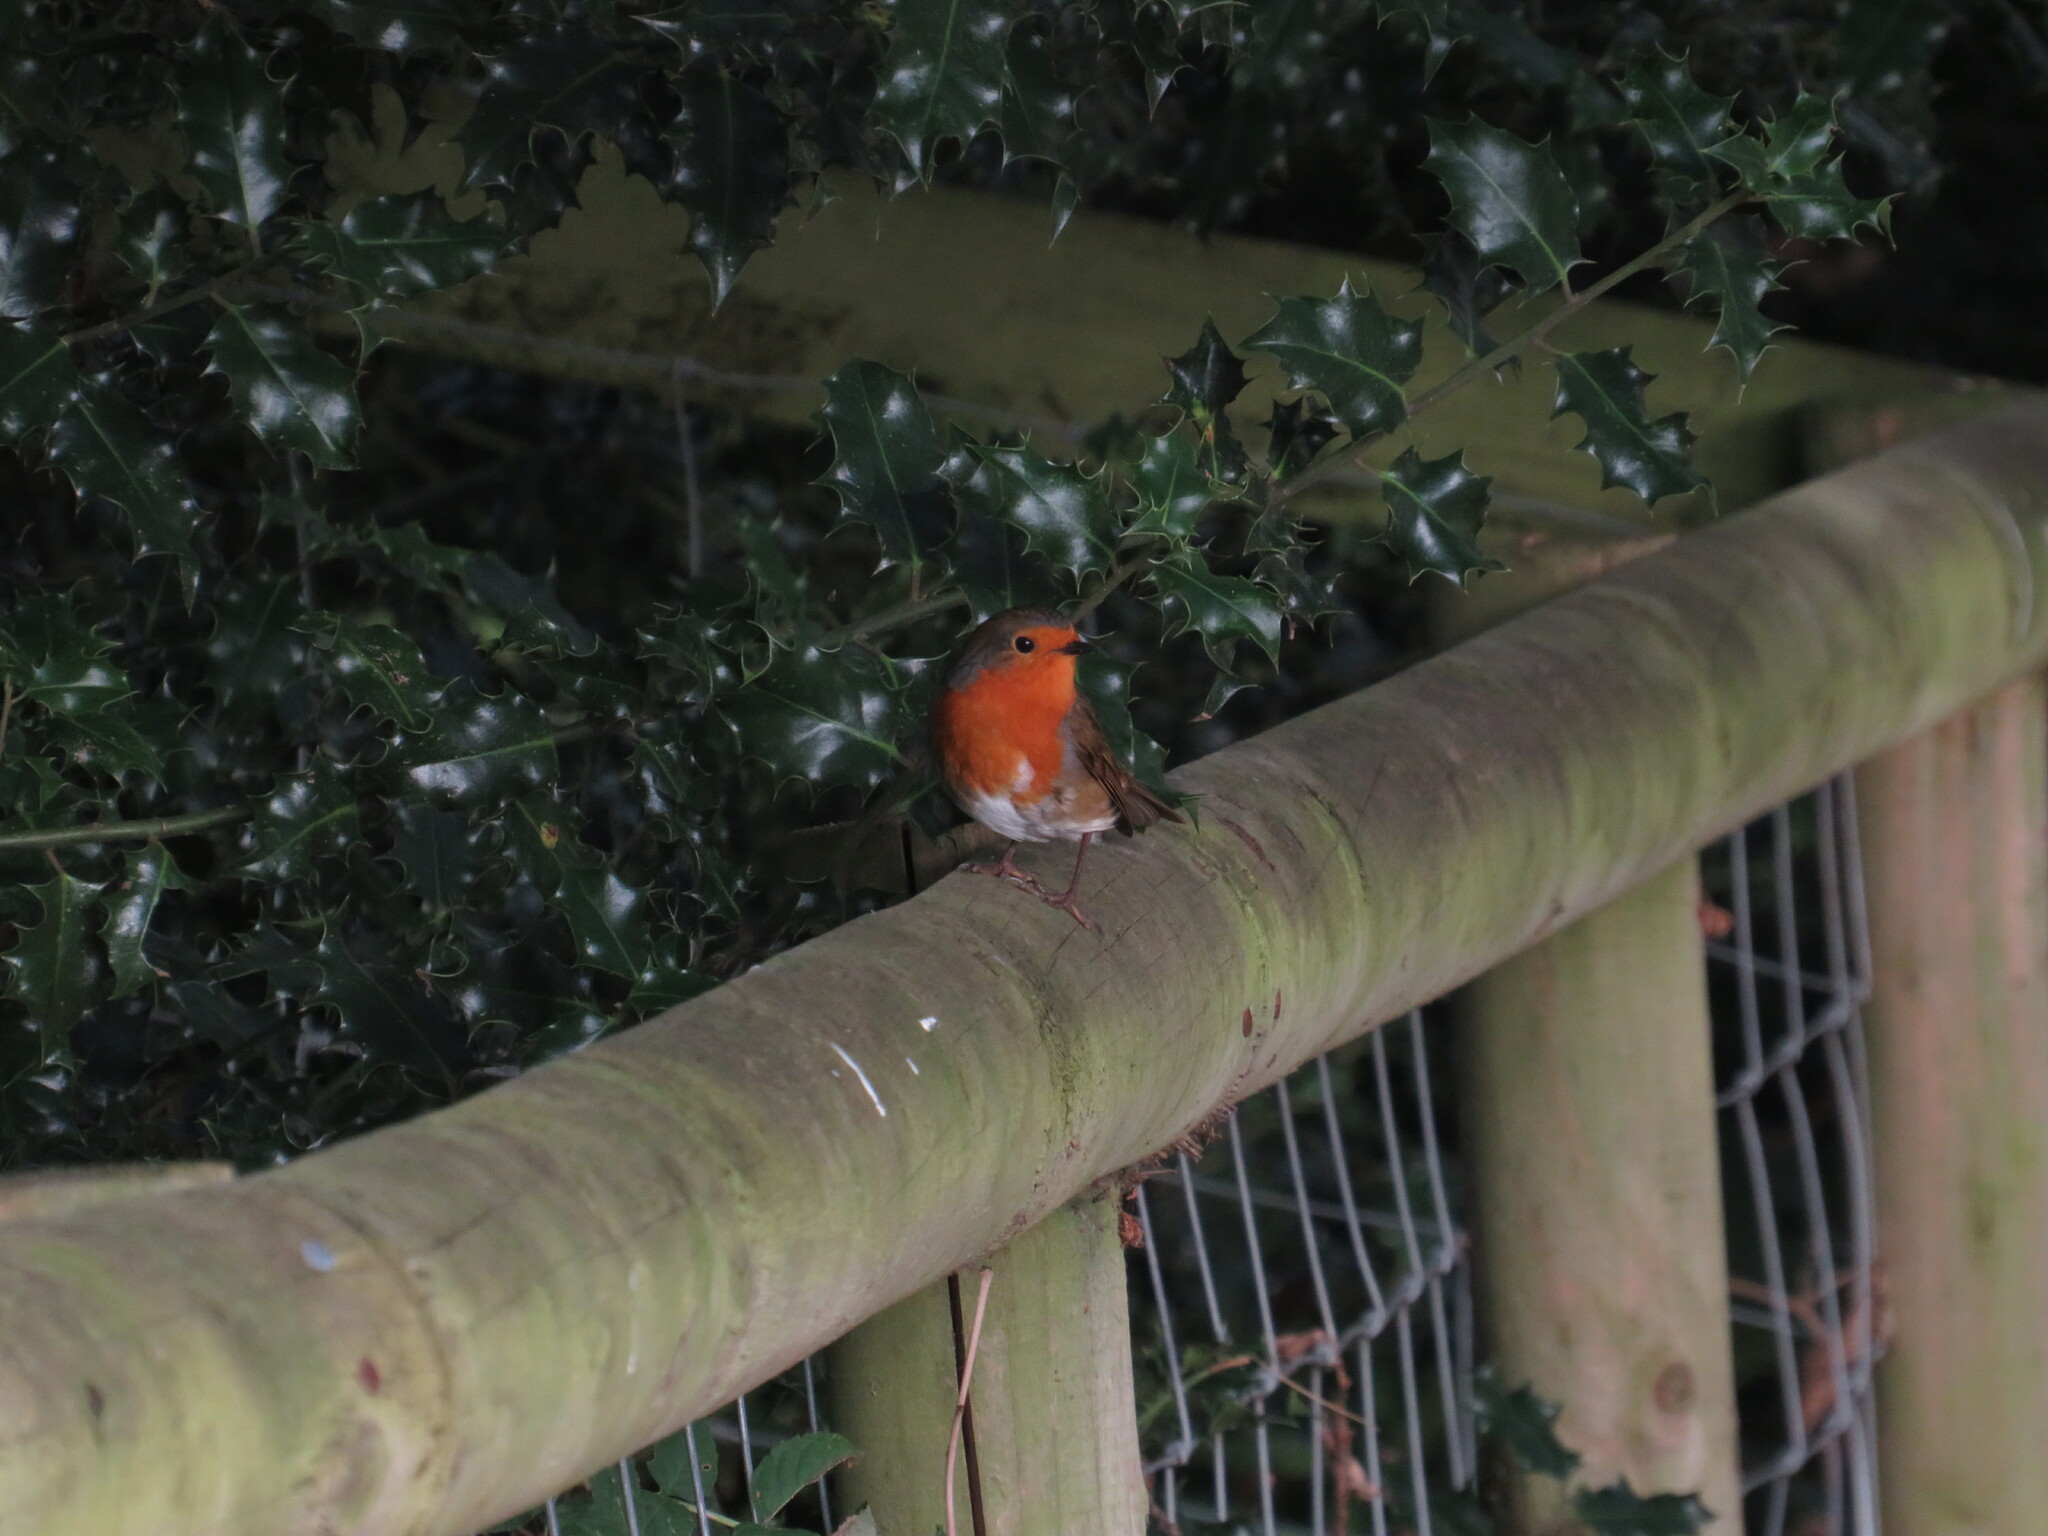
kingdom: Animalia
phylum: Chordata
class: Aves
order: Passeriformes
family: Muscicapidae
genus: Erithacus
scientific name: Erithacus rubecula
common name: European robin
